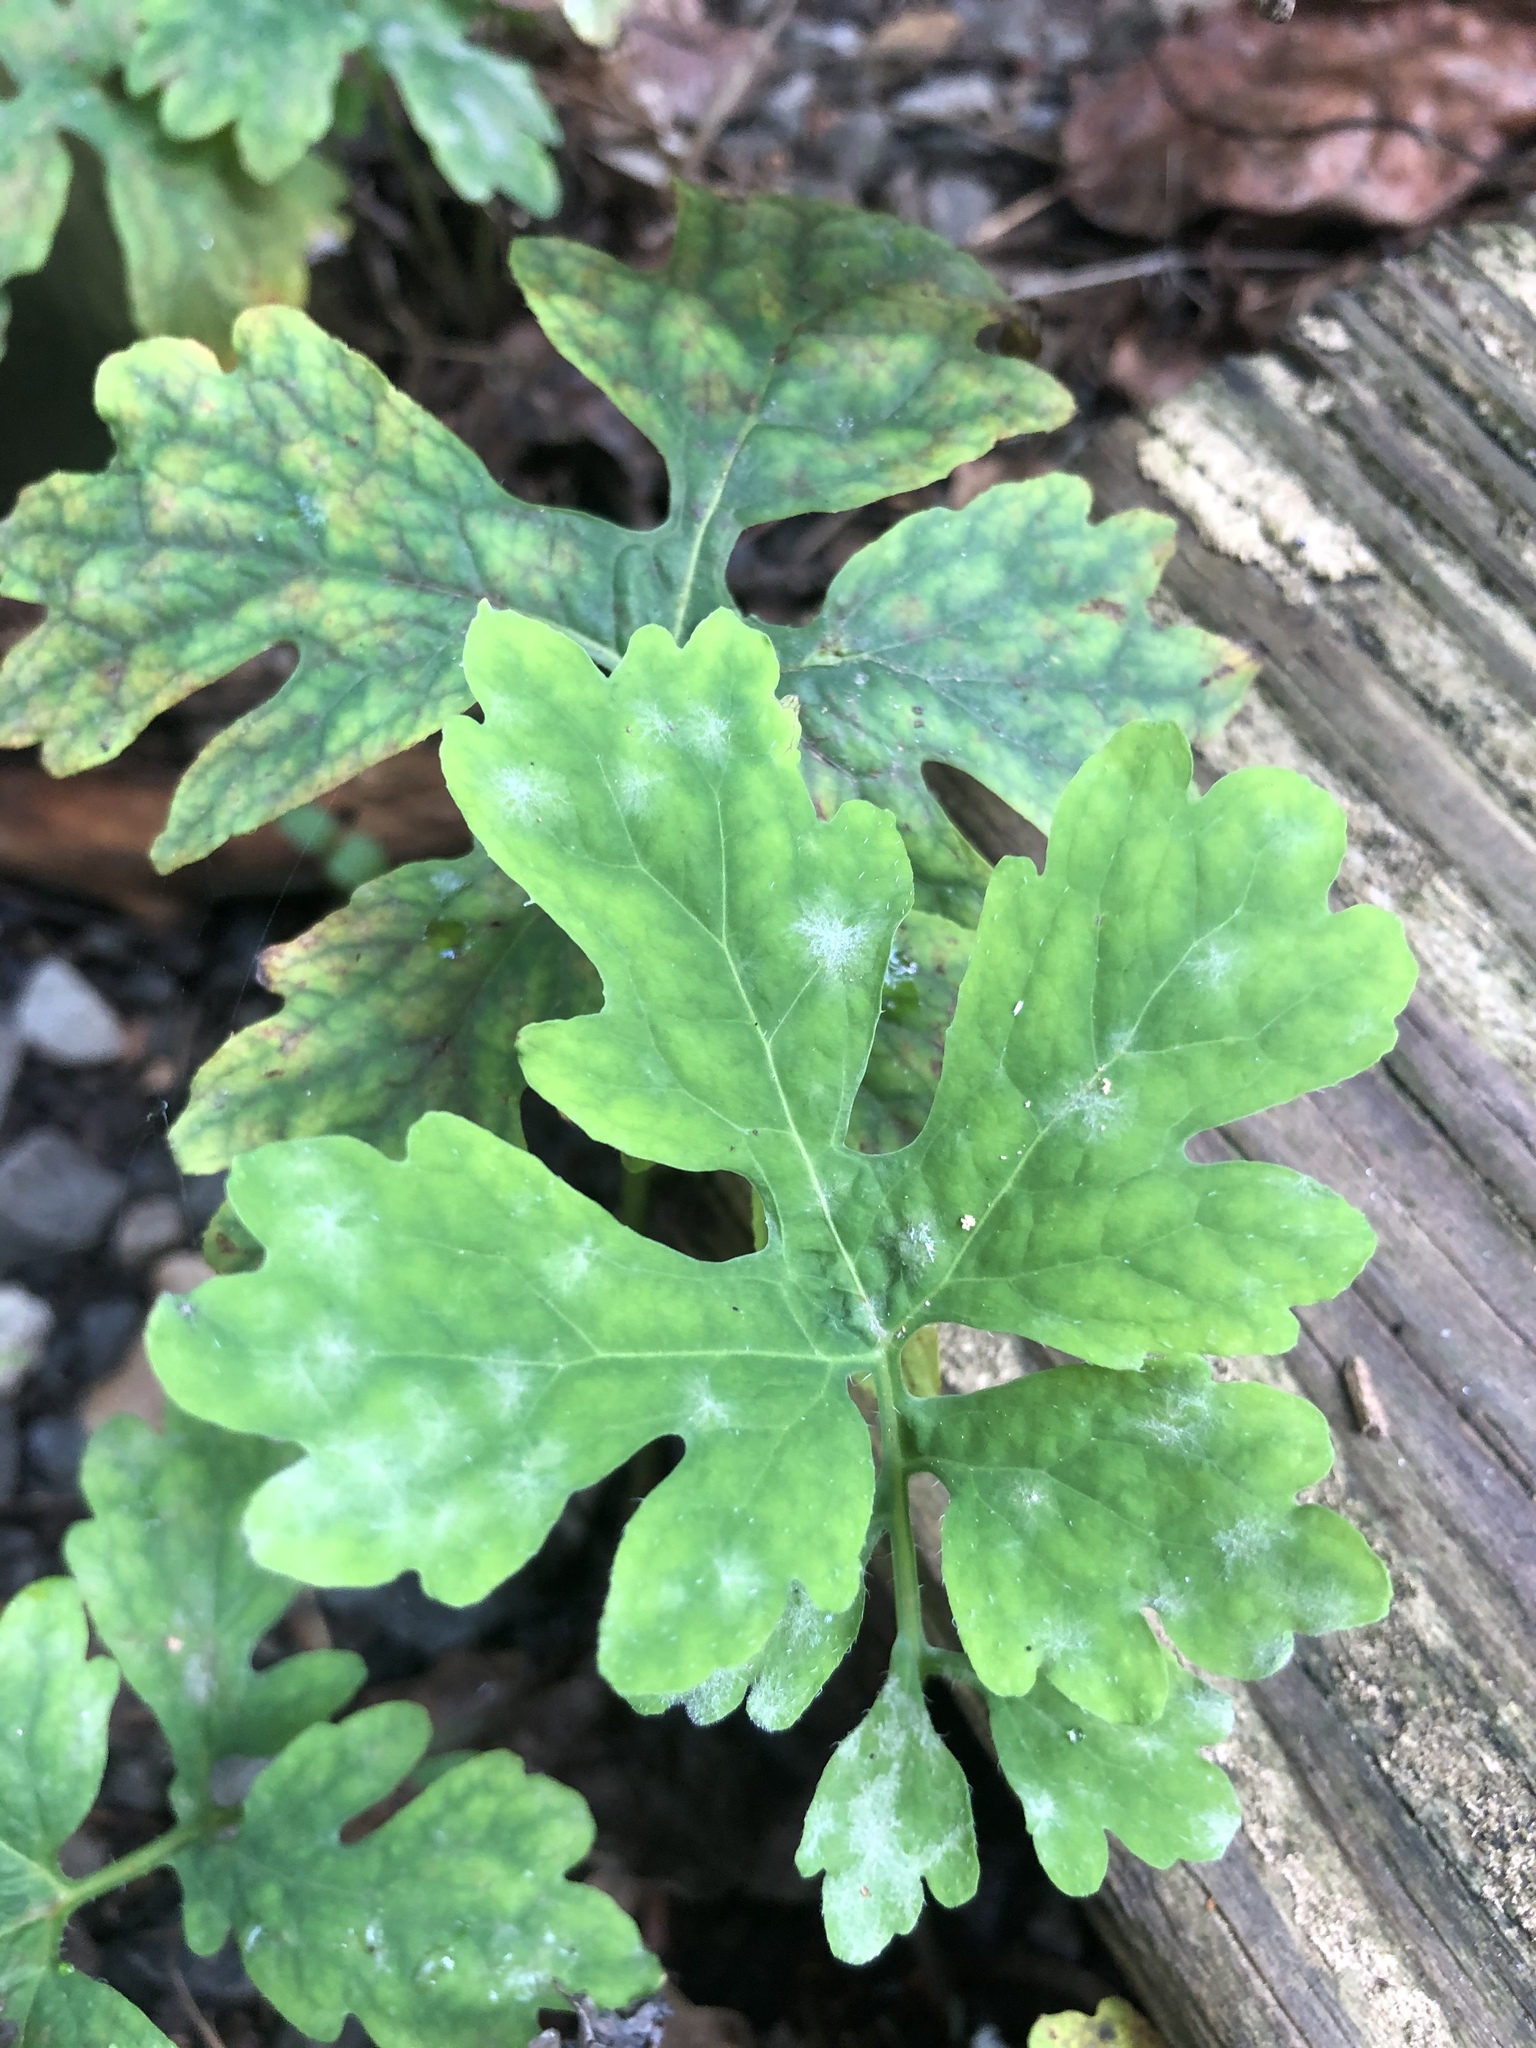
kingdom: Plantae
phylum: Tracheophyta
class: Magnoliopsida
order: Ranunculales
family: Papaveraceae
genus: Stylophorum
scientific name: Stylophorum diphyllum
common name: Celandine poppy
